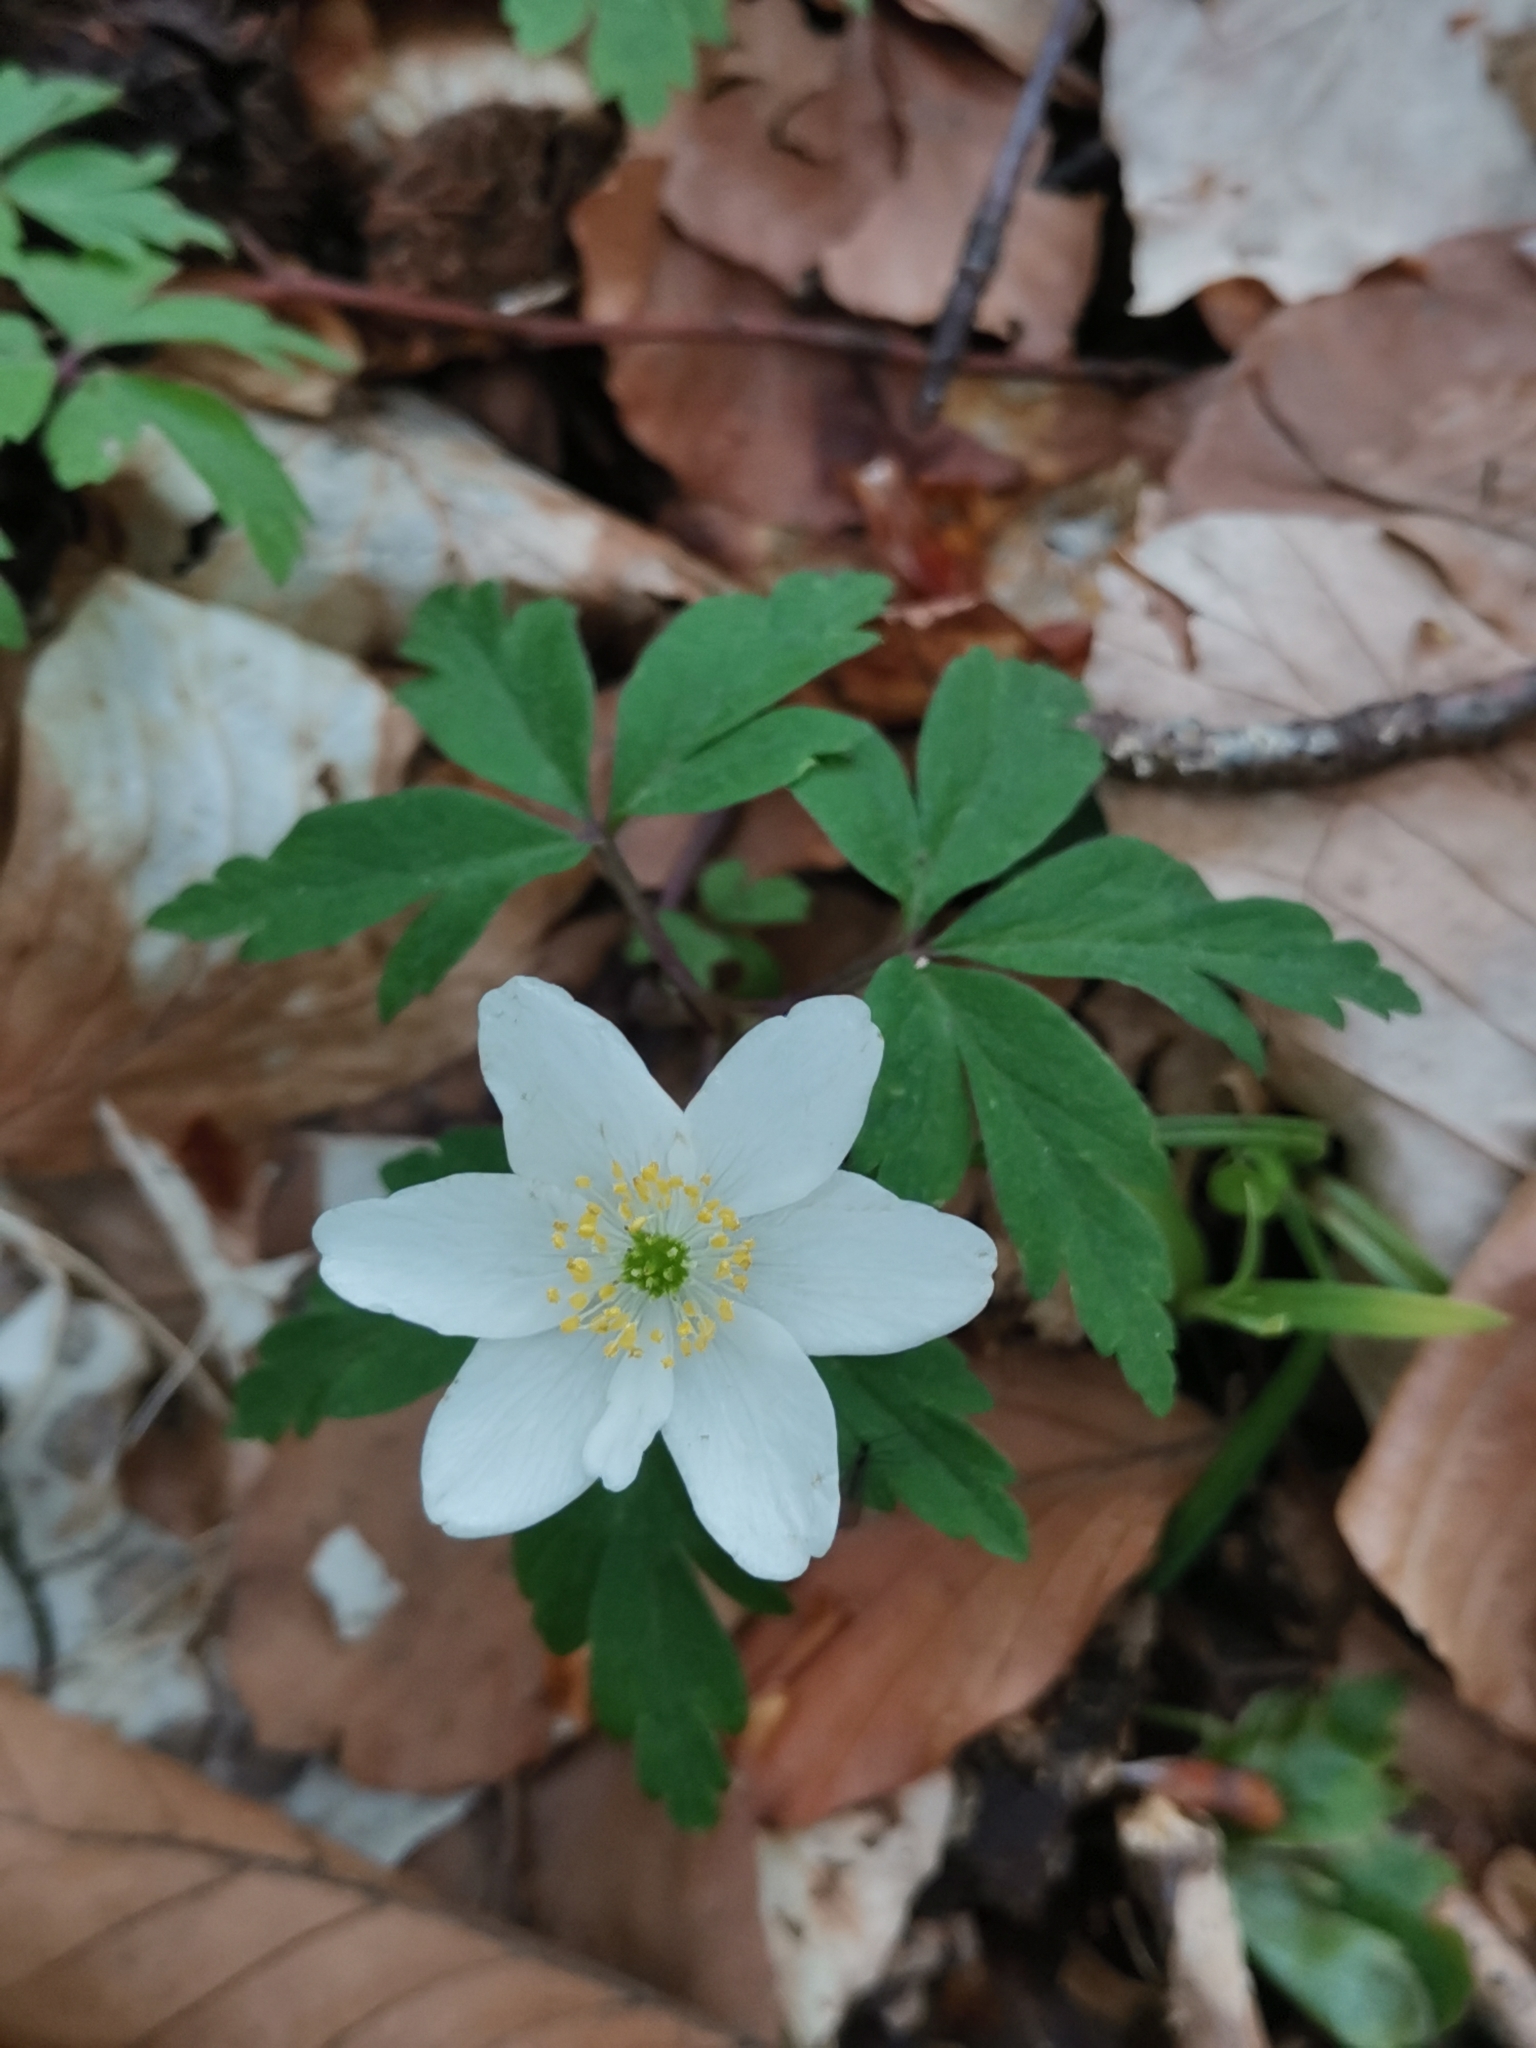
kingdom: Plantae
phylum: Tracheophyta
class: Magnoliopsida
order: Ranunculales
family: Ranunculaceae
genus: Anemone
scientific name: Anemone nemorosa
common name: Wood anemone
